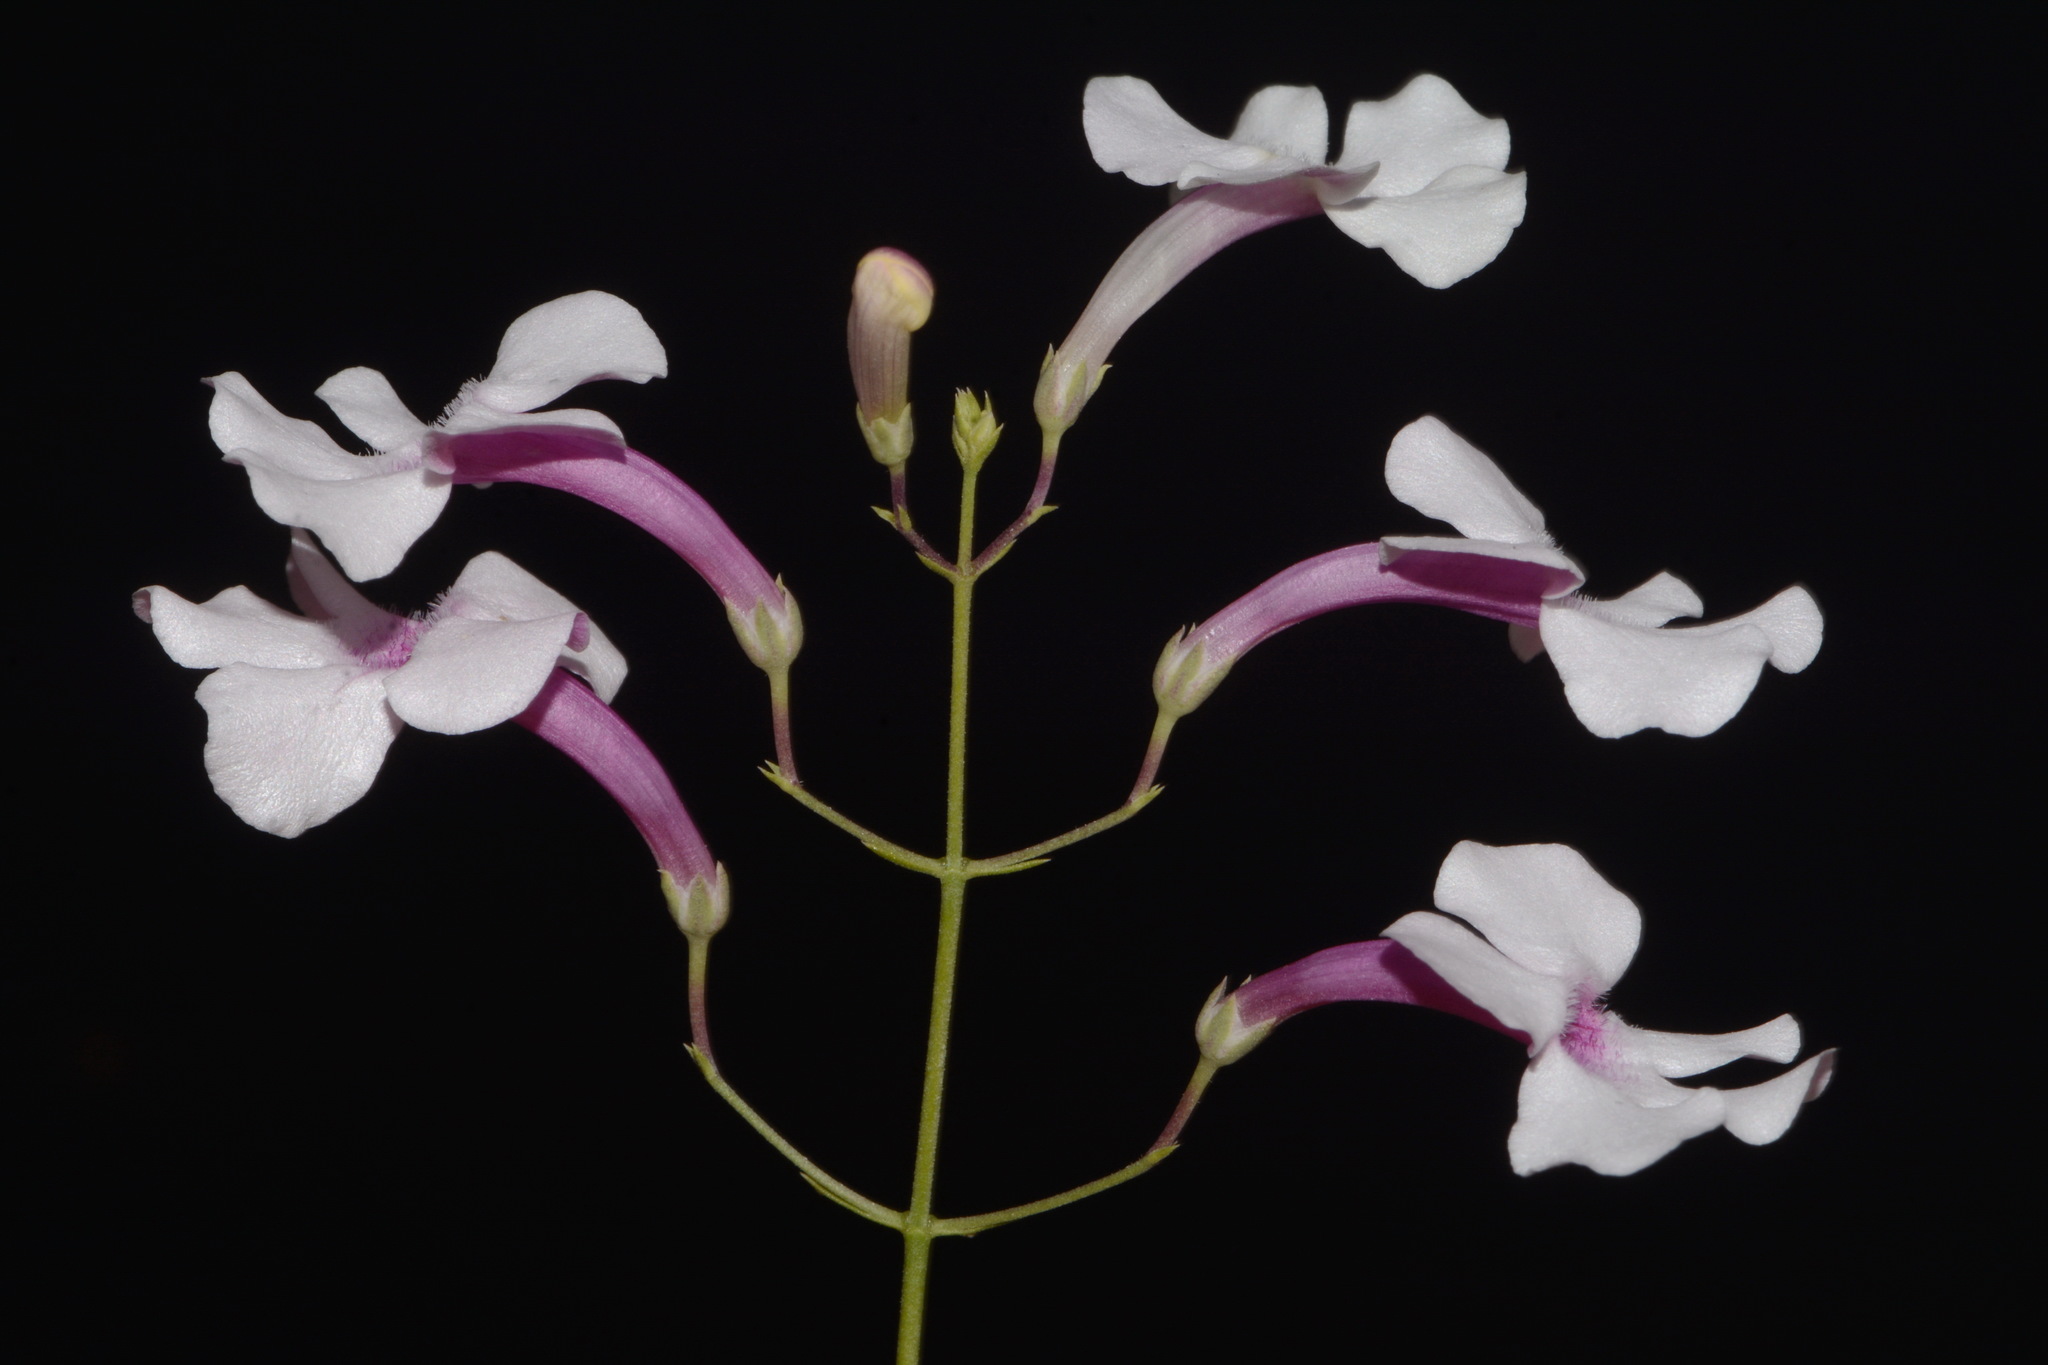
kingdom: Plantae
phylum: Tracheophyta
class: Magnoliopsida
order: Lamiales
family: Plantaginaceae
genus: Penstemon
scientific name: Penstemon ambiguus
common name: Bush penstemon
